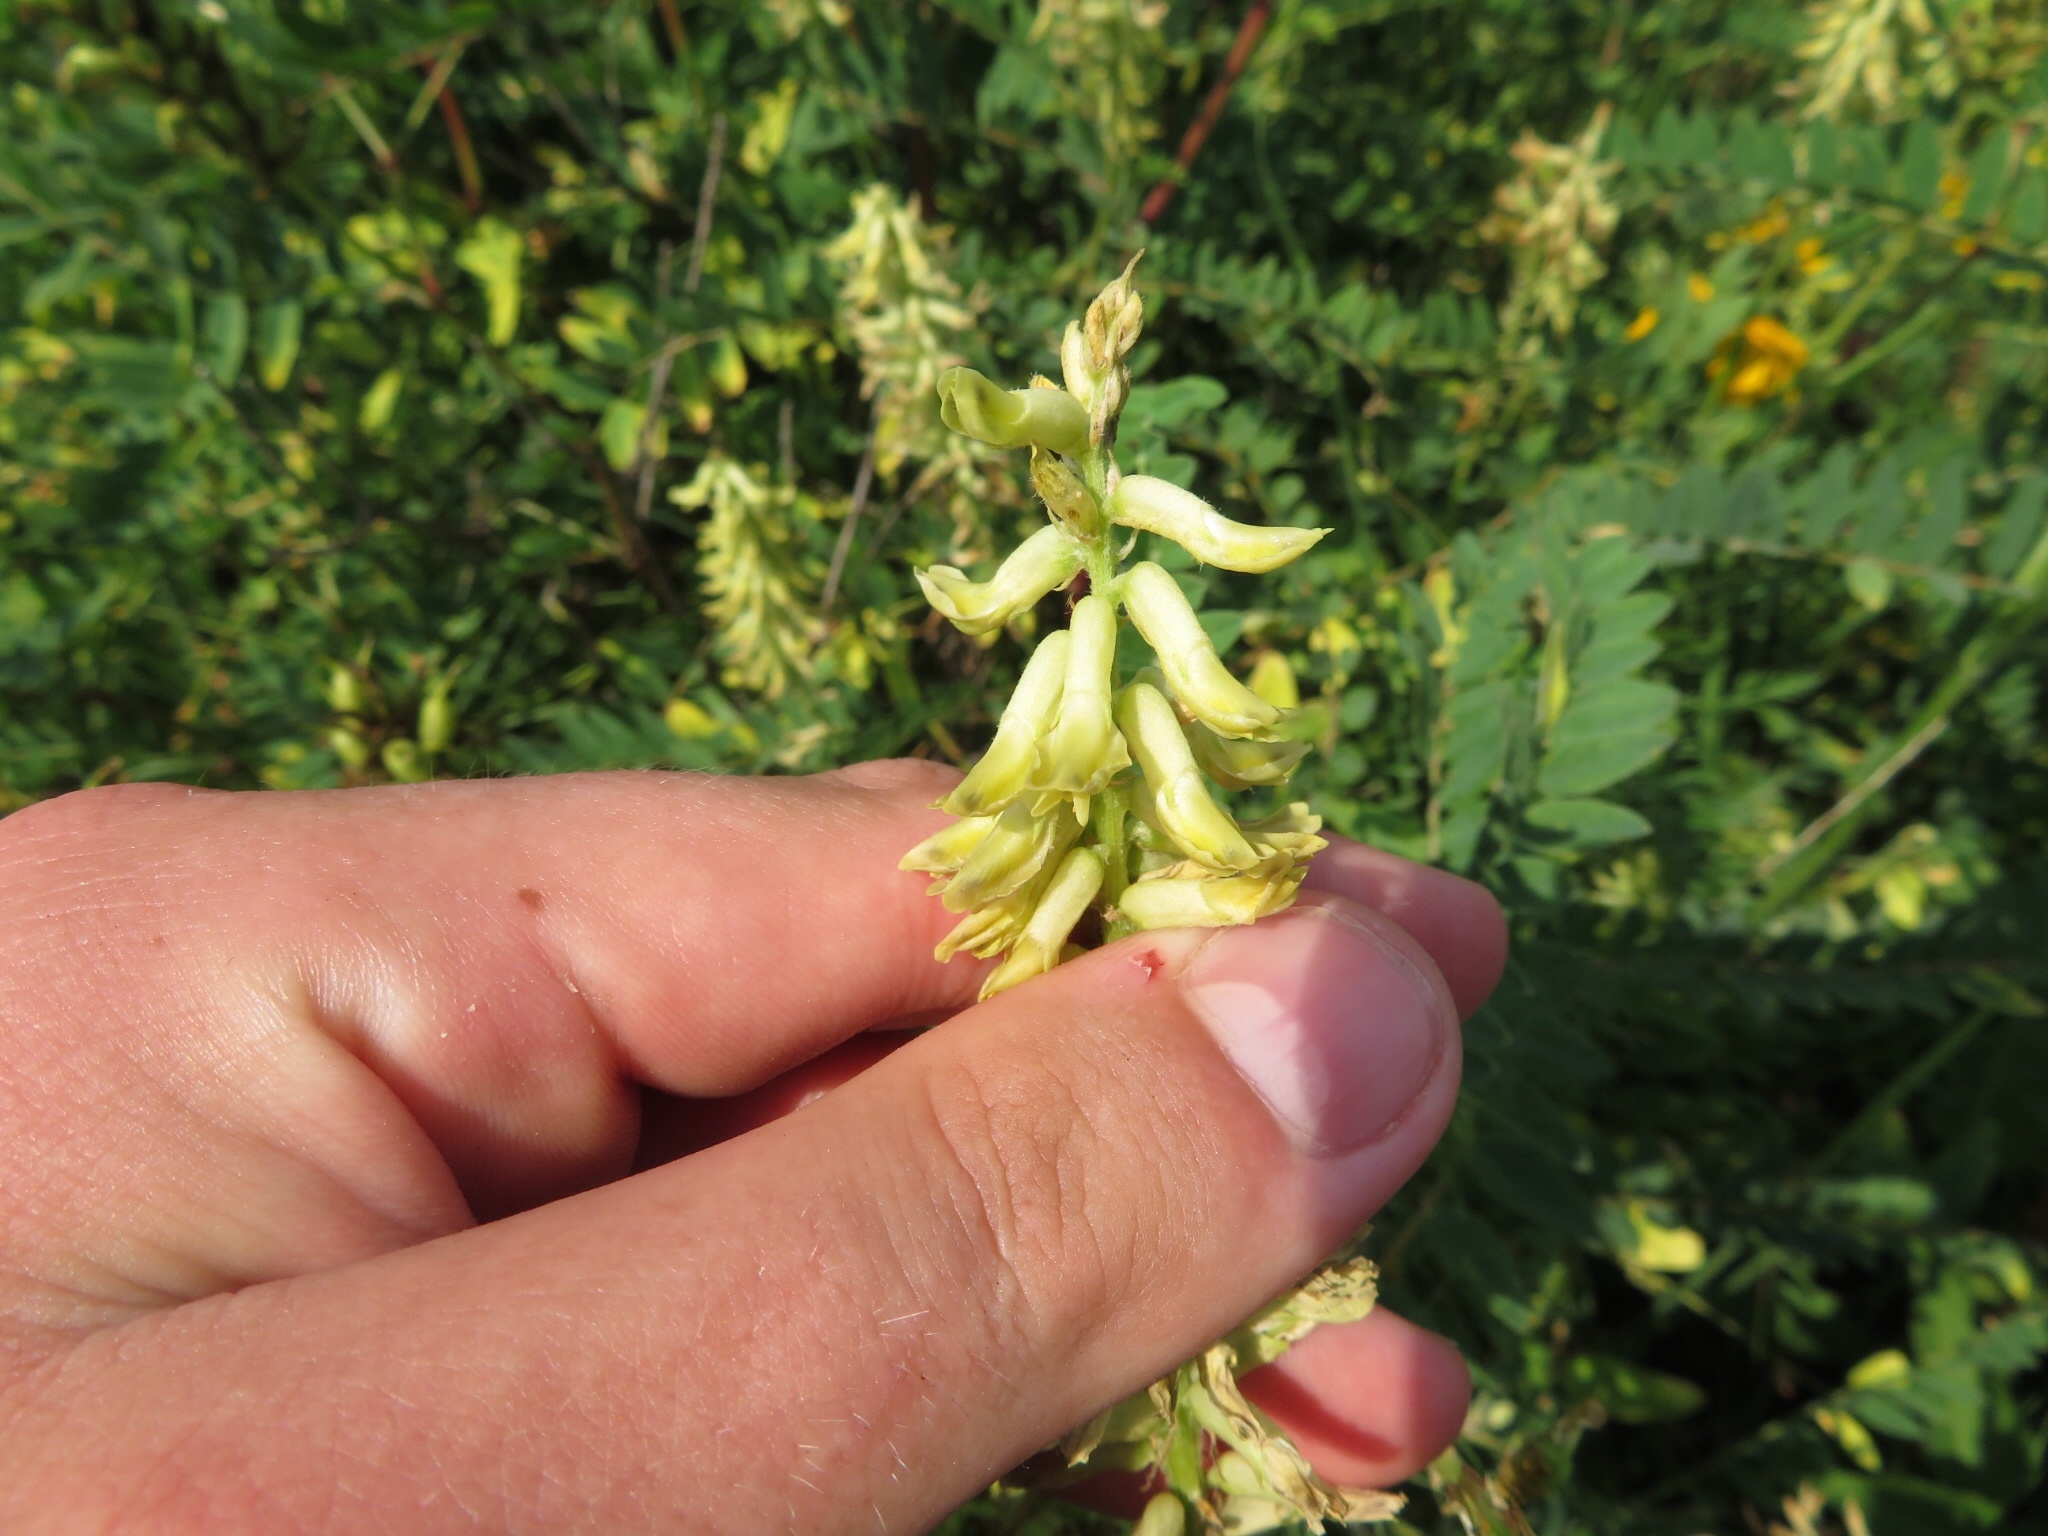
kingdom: Plantae
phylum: Tracheophyta
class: Magnoliopsida
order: Fabales
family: Fabaceae
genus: Astragalus
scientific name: Astragalus canadensis
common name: Canada milk-vetch
